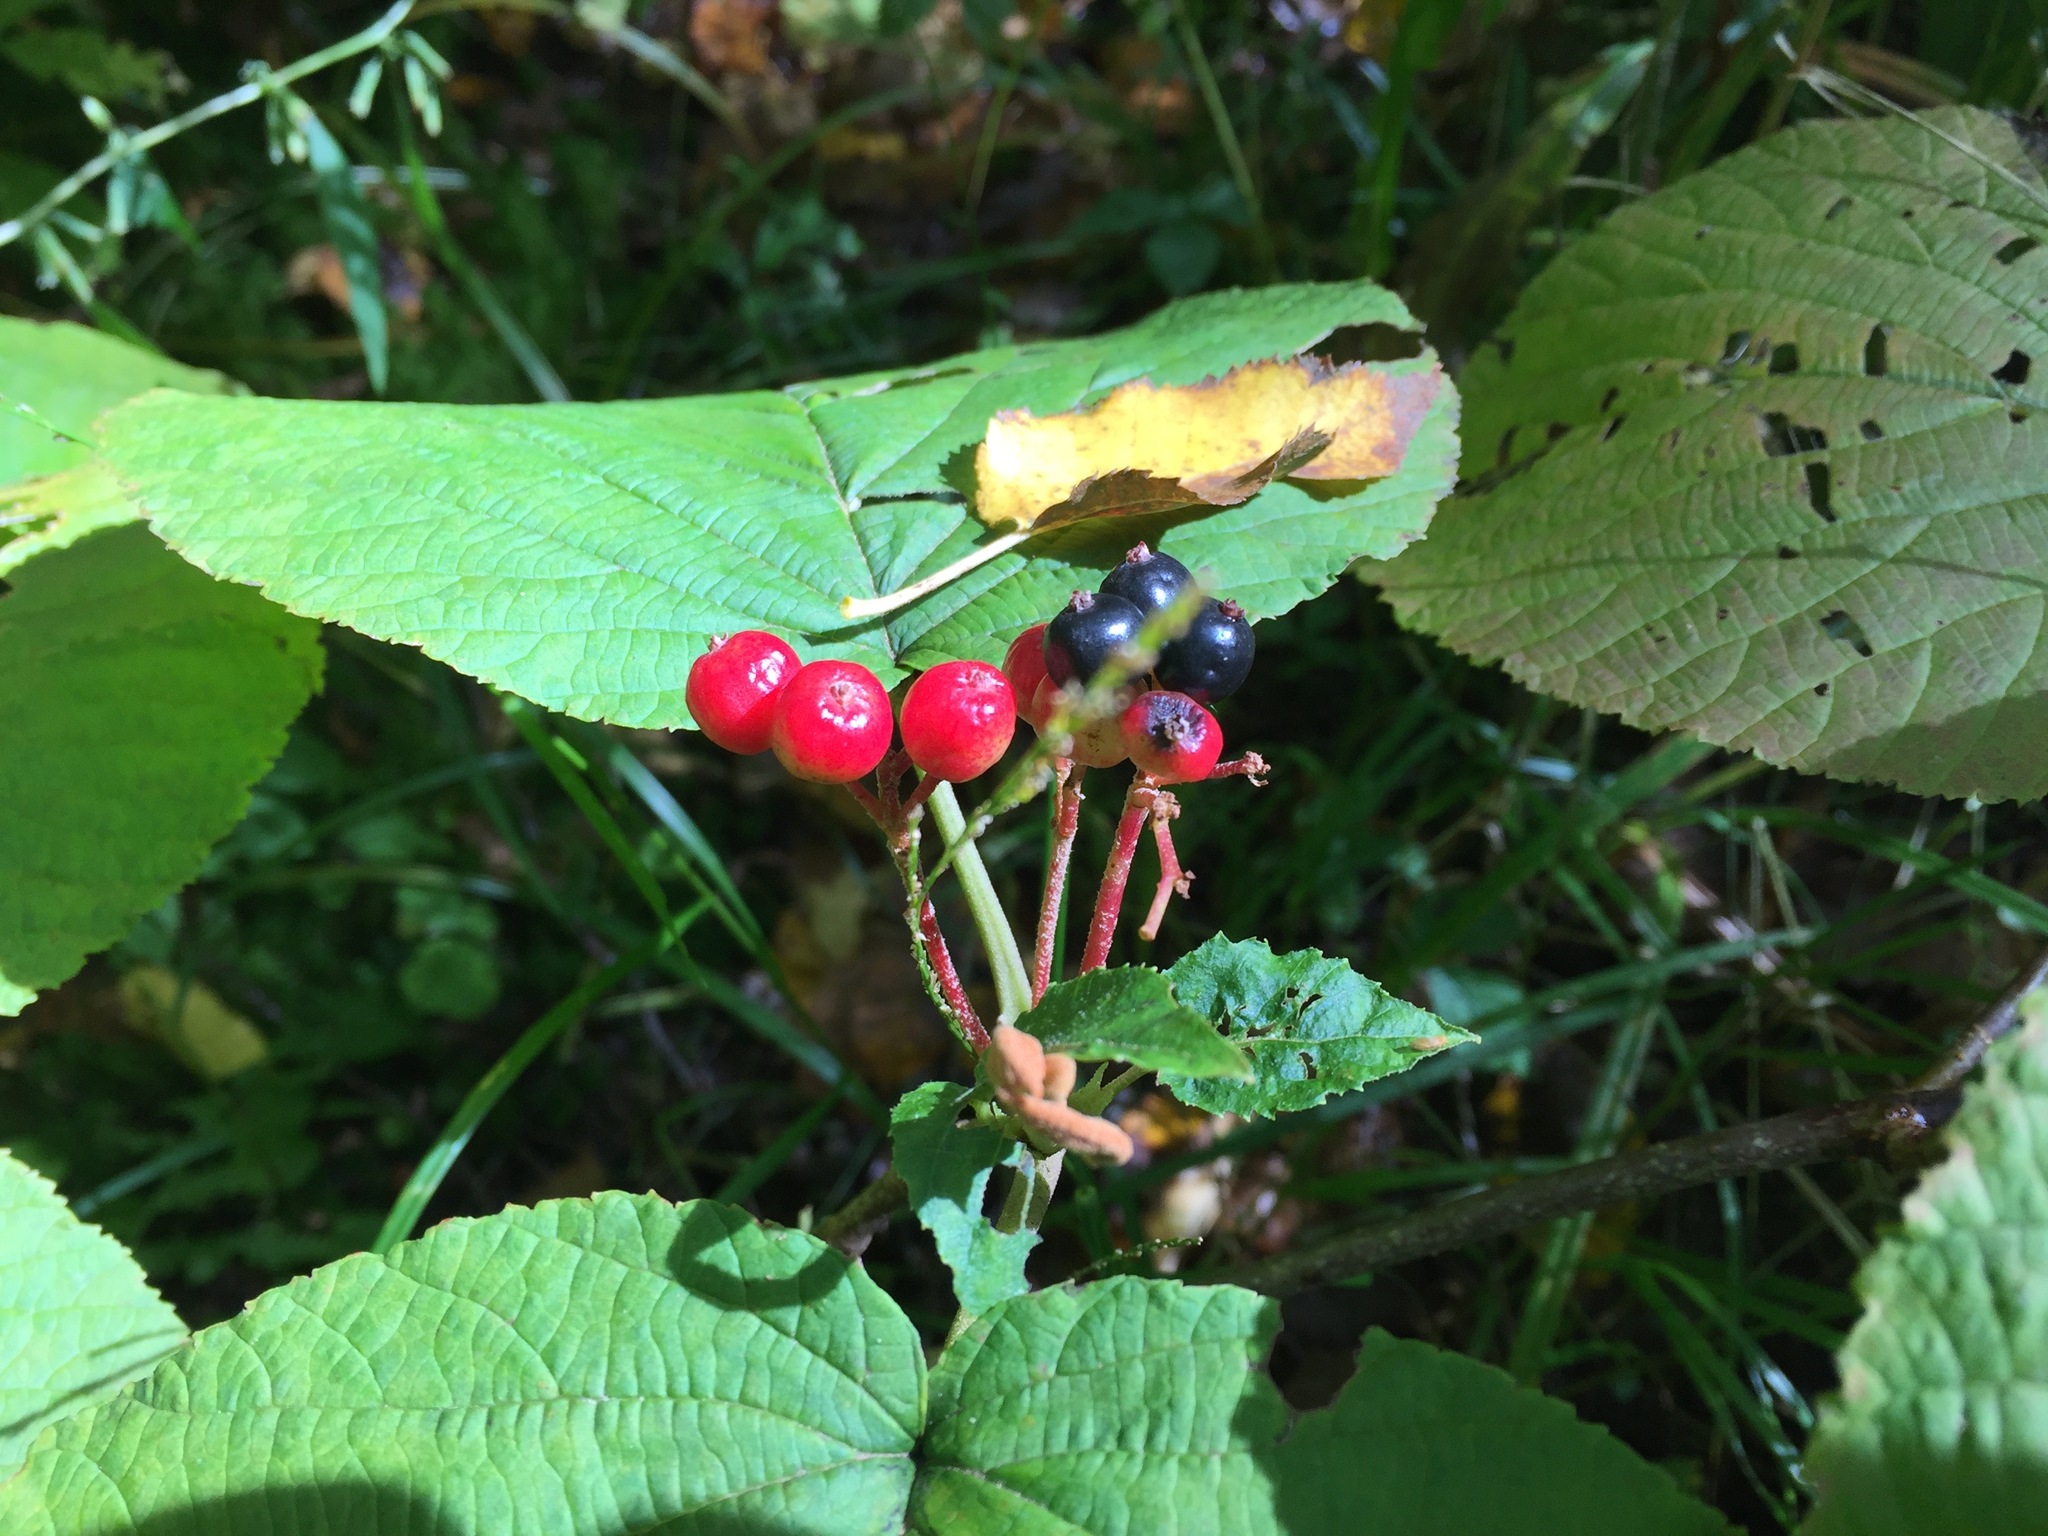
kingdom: Plantae
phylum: Tracheophyta
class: Magnoliopsida
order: Dipsacales
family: Viburnaceae
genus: Viburnum
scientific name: Viburnum lantanoides
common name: Hobblebush
